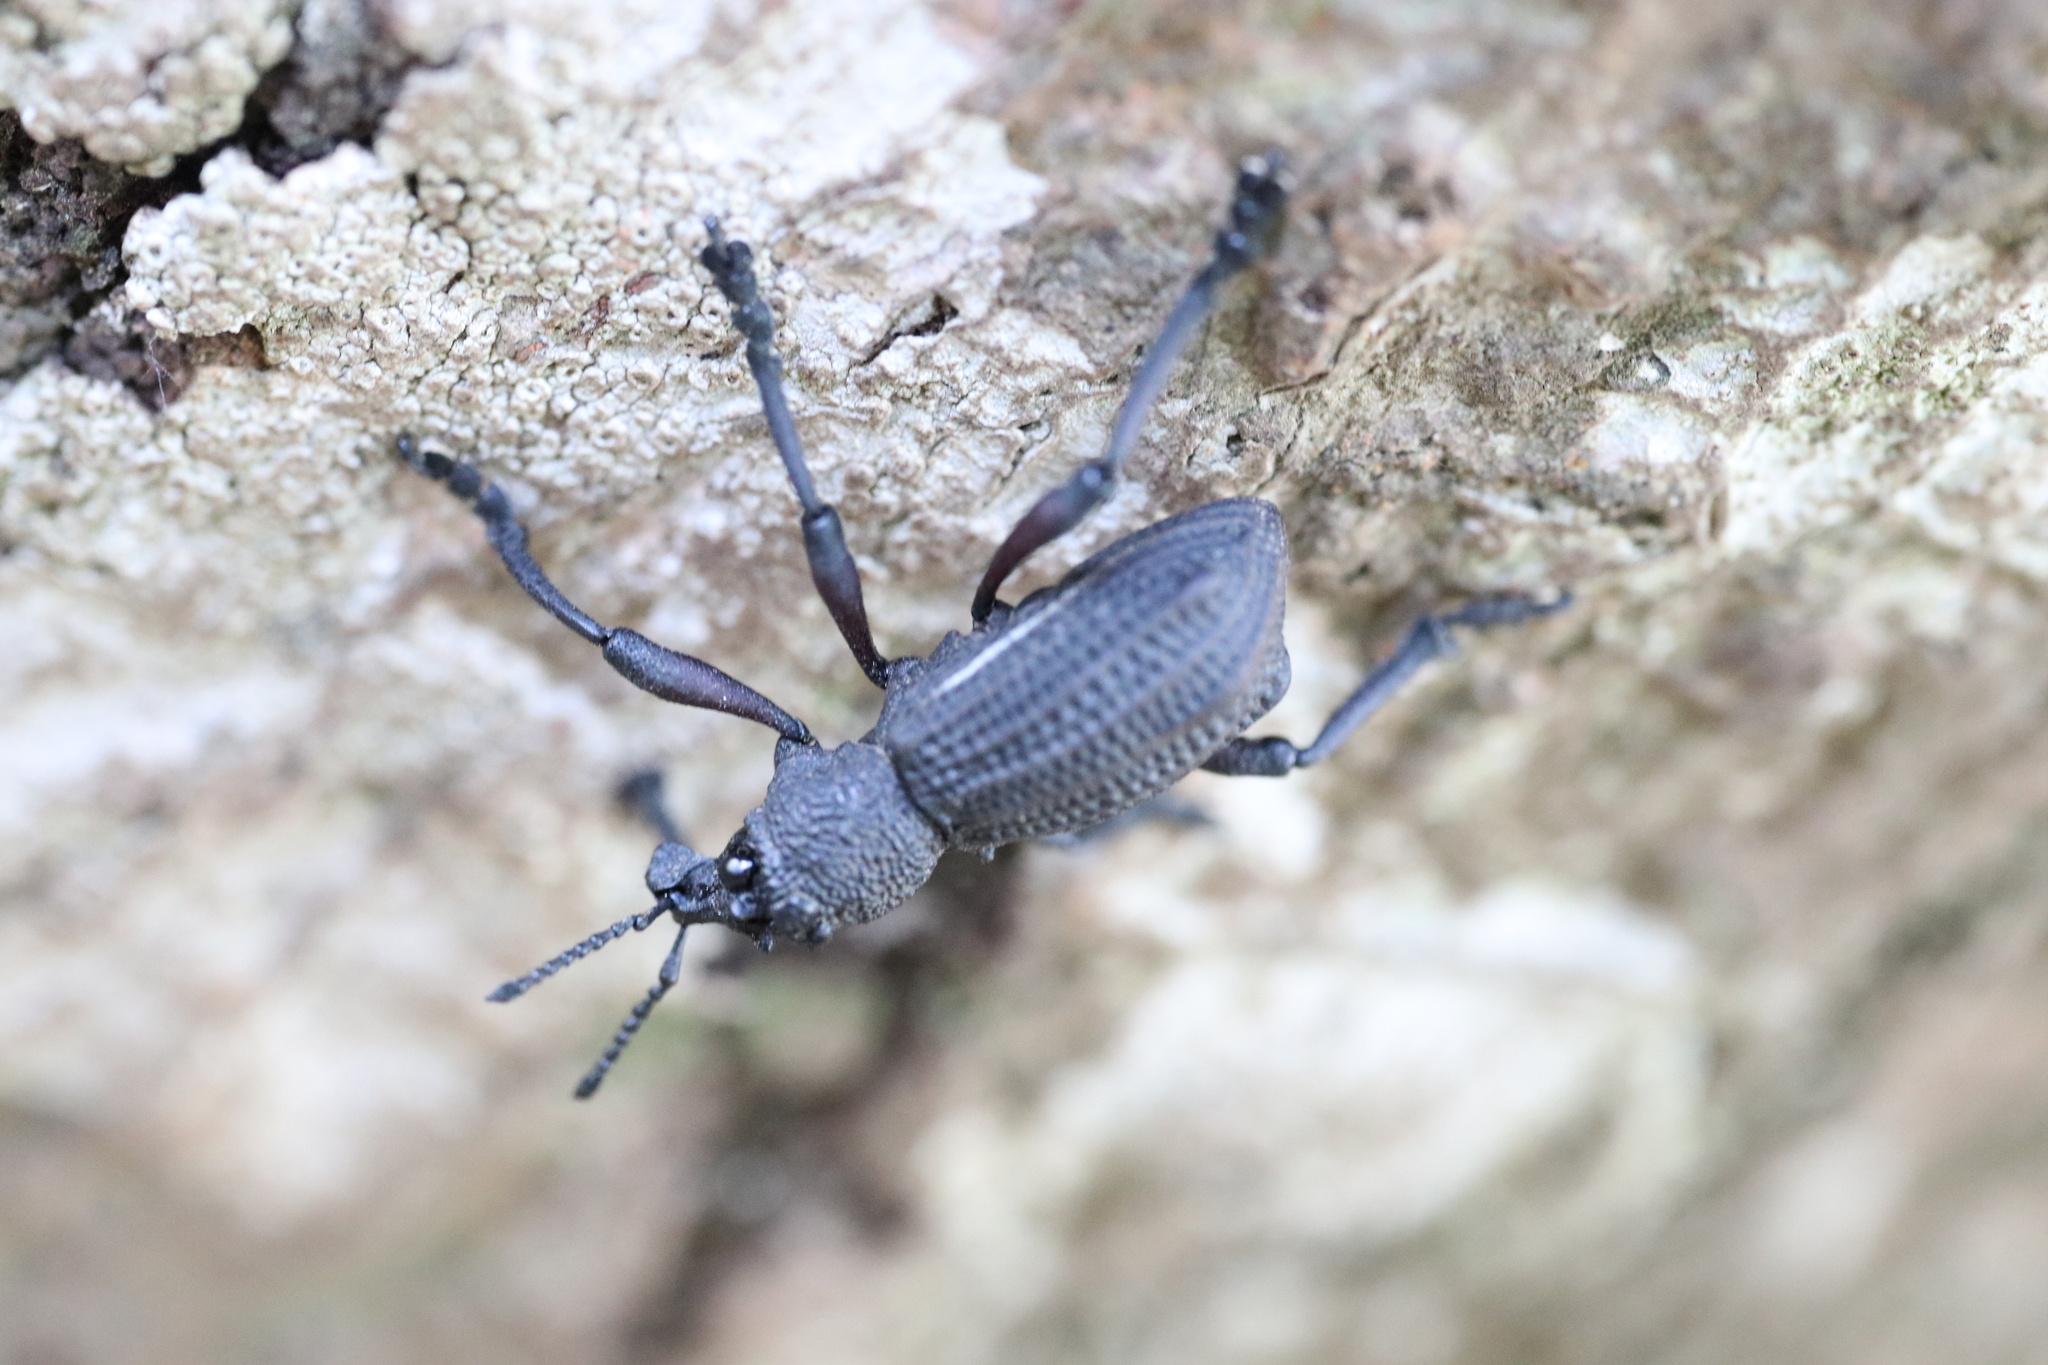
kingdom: Animalia
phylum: Arthropoda
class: Insecta
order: Coleoptera
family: Curculionidae
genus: Aegorhinus
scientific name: Aegorhinus
